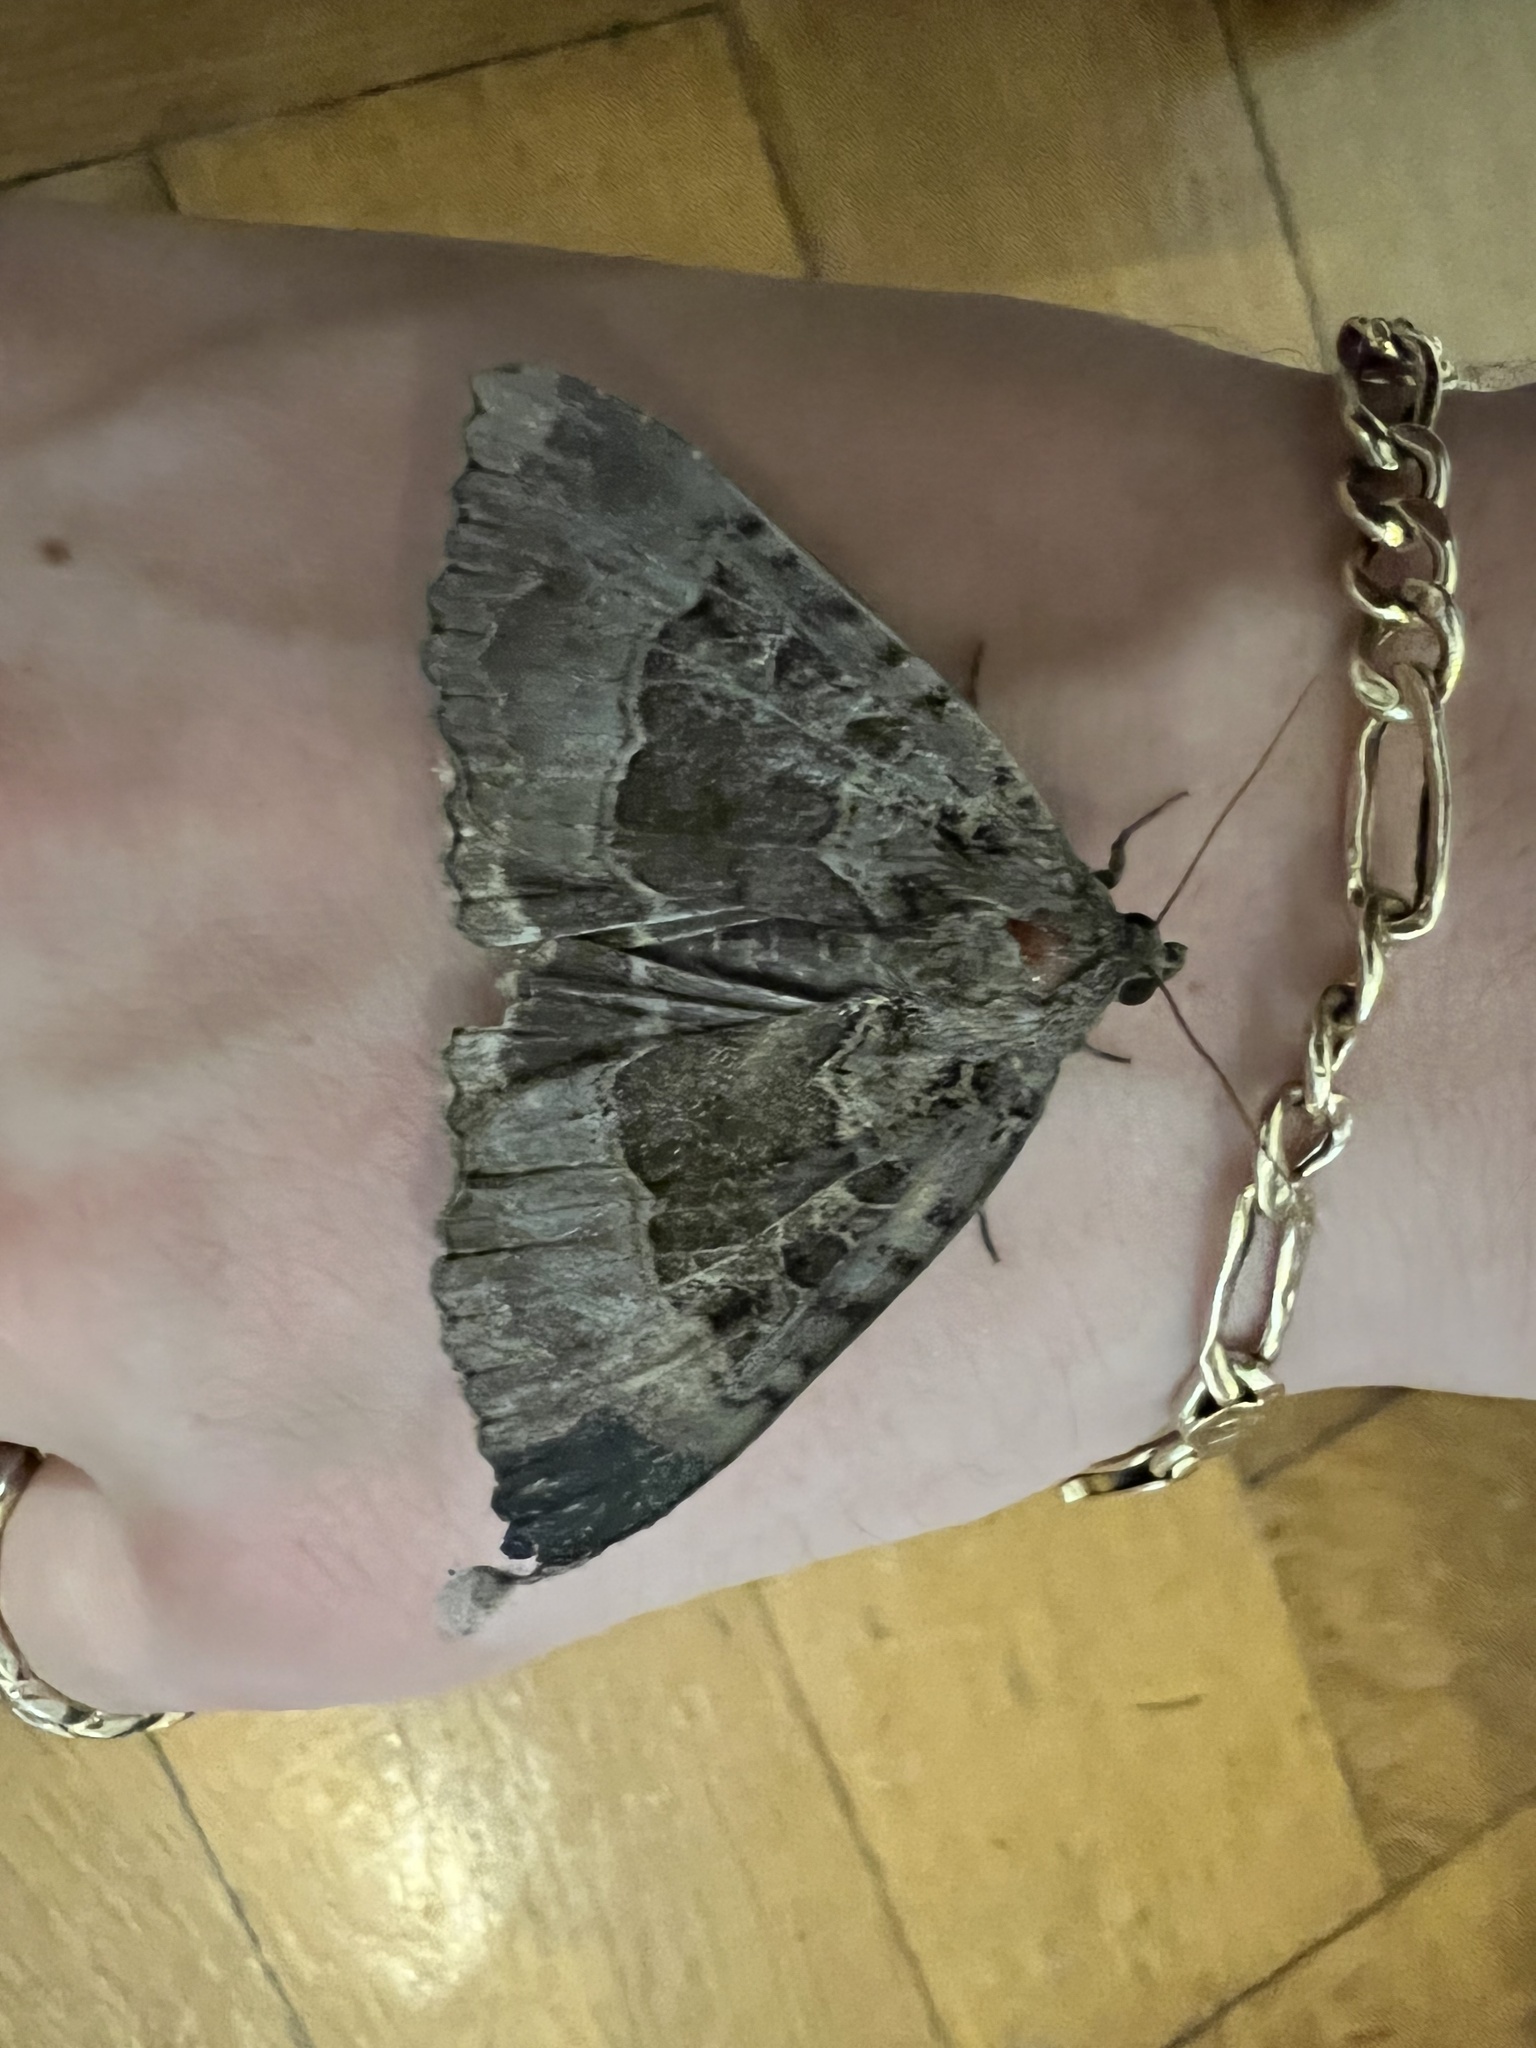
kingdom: Animalia
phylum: Arthropoda
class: Insecta
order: Lepidoptera
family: Noctuidae
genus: Mormo
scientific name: Mormo maura
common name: Old lady
